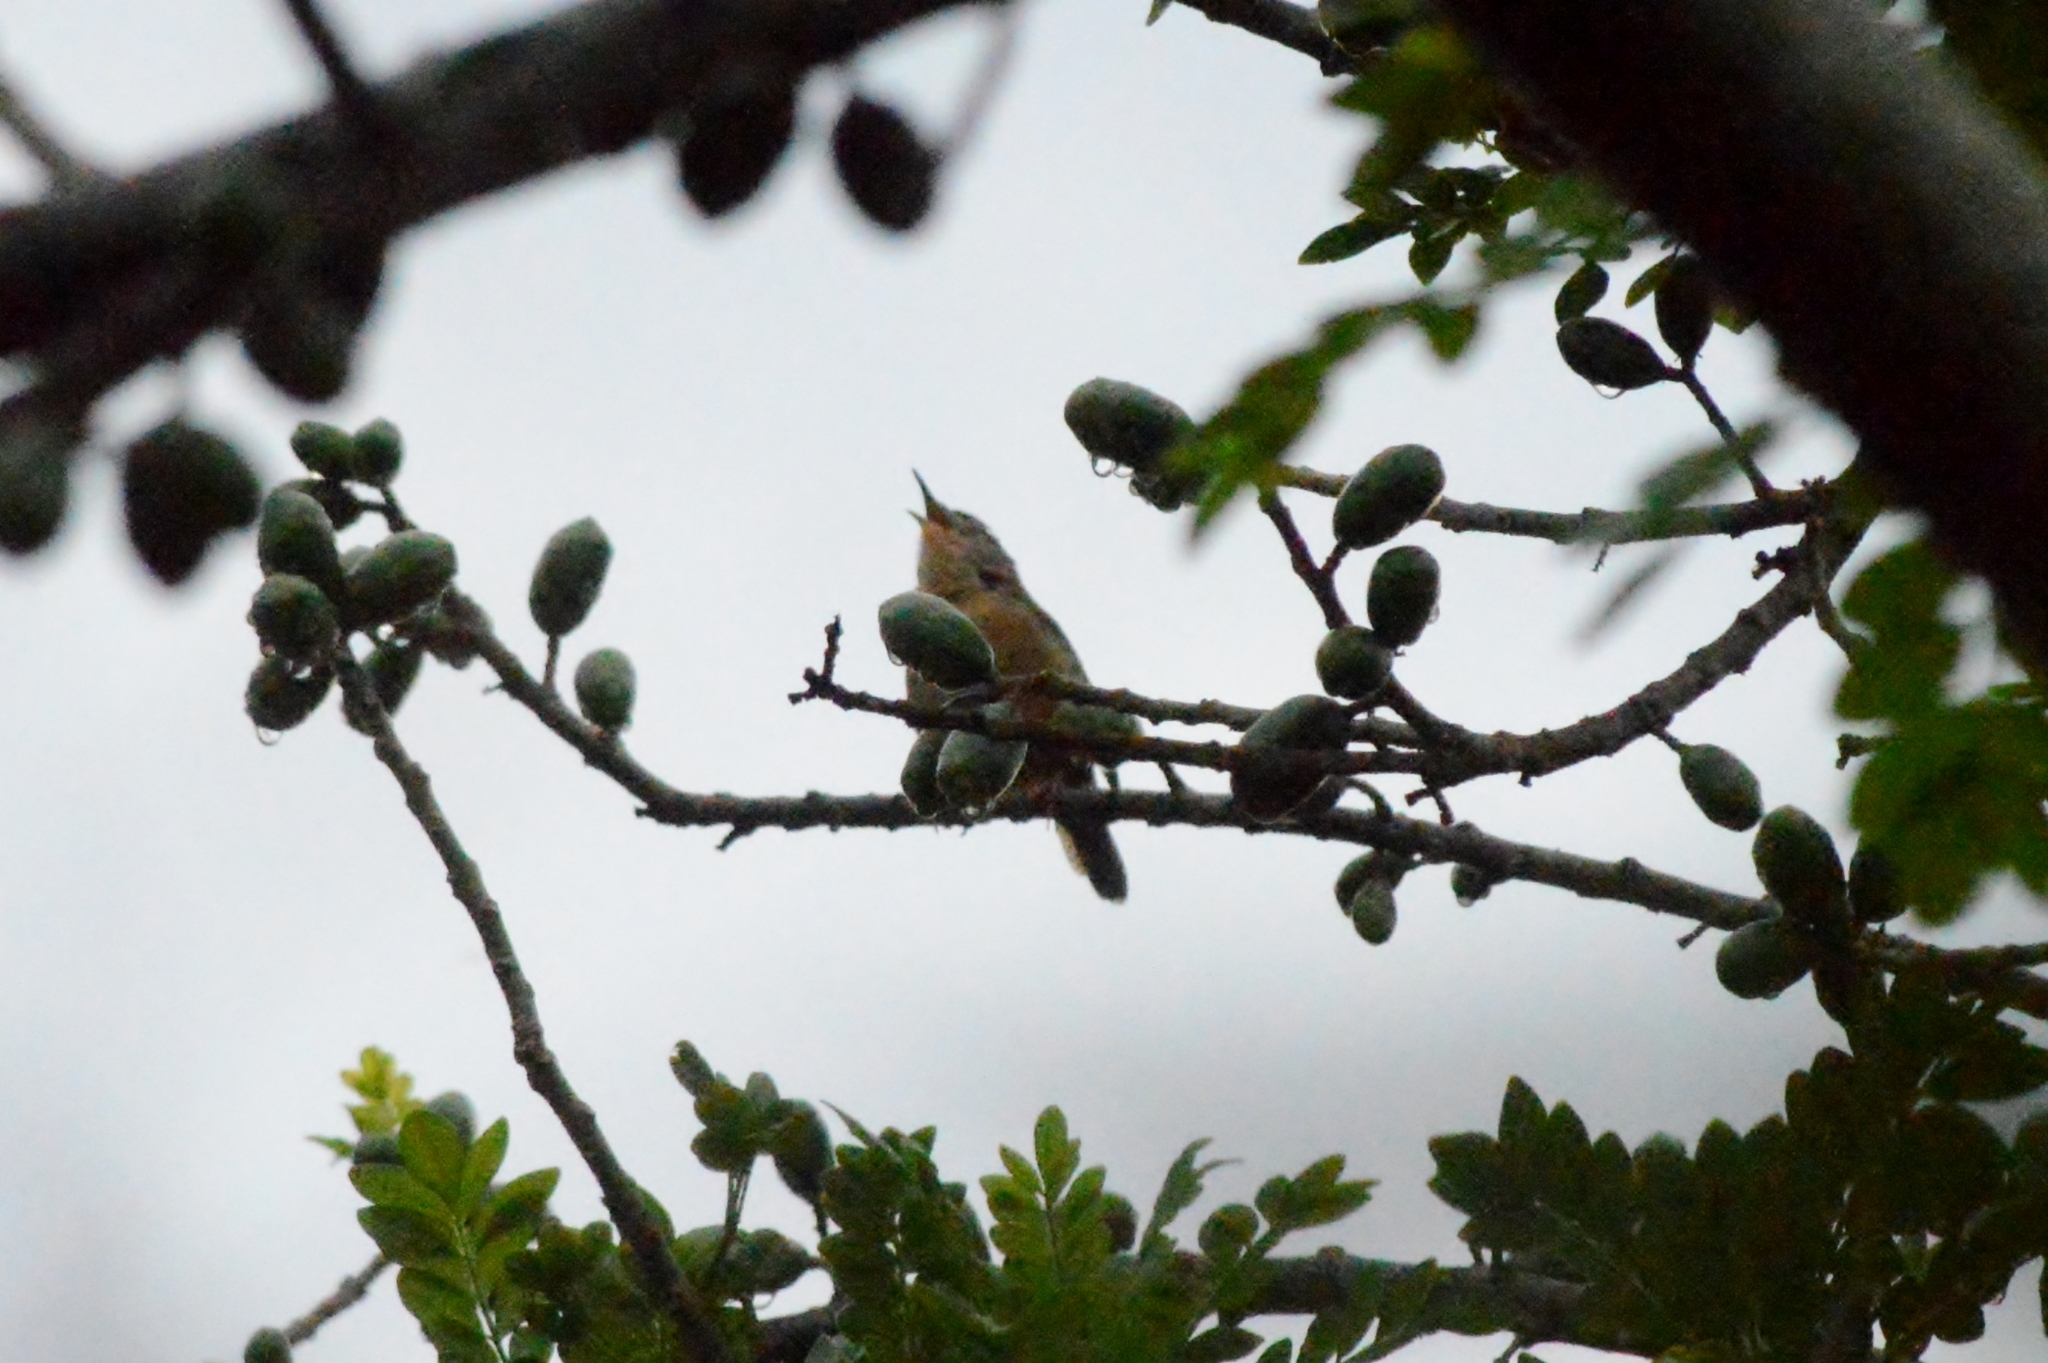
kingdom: Animalia
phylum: Chordata
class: Aves
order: Passeriformes
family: Troglodytidae
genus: Troglodytes
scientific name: Troglodytes aedon
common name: House wren
